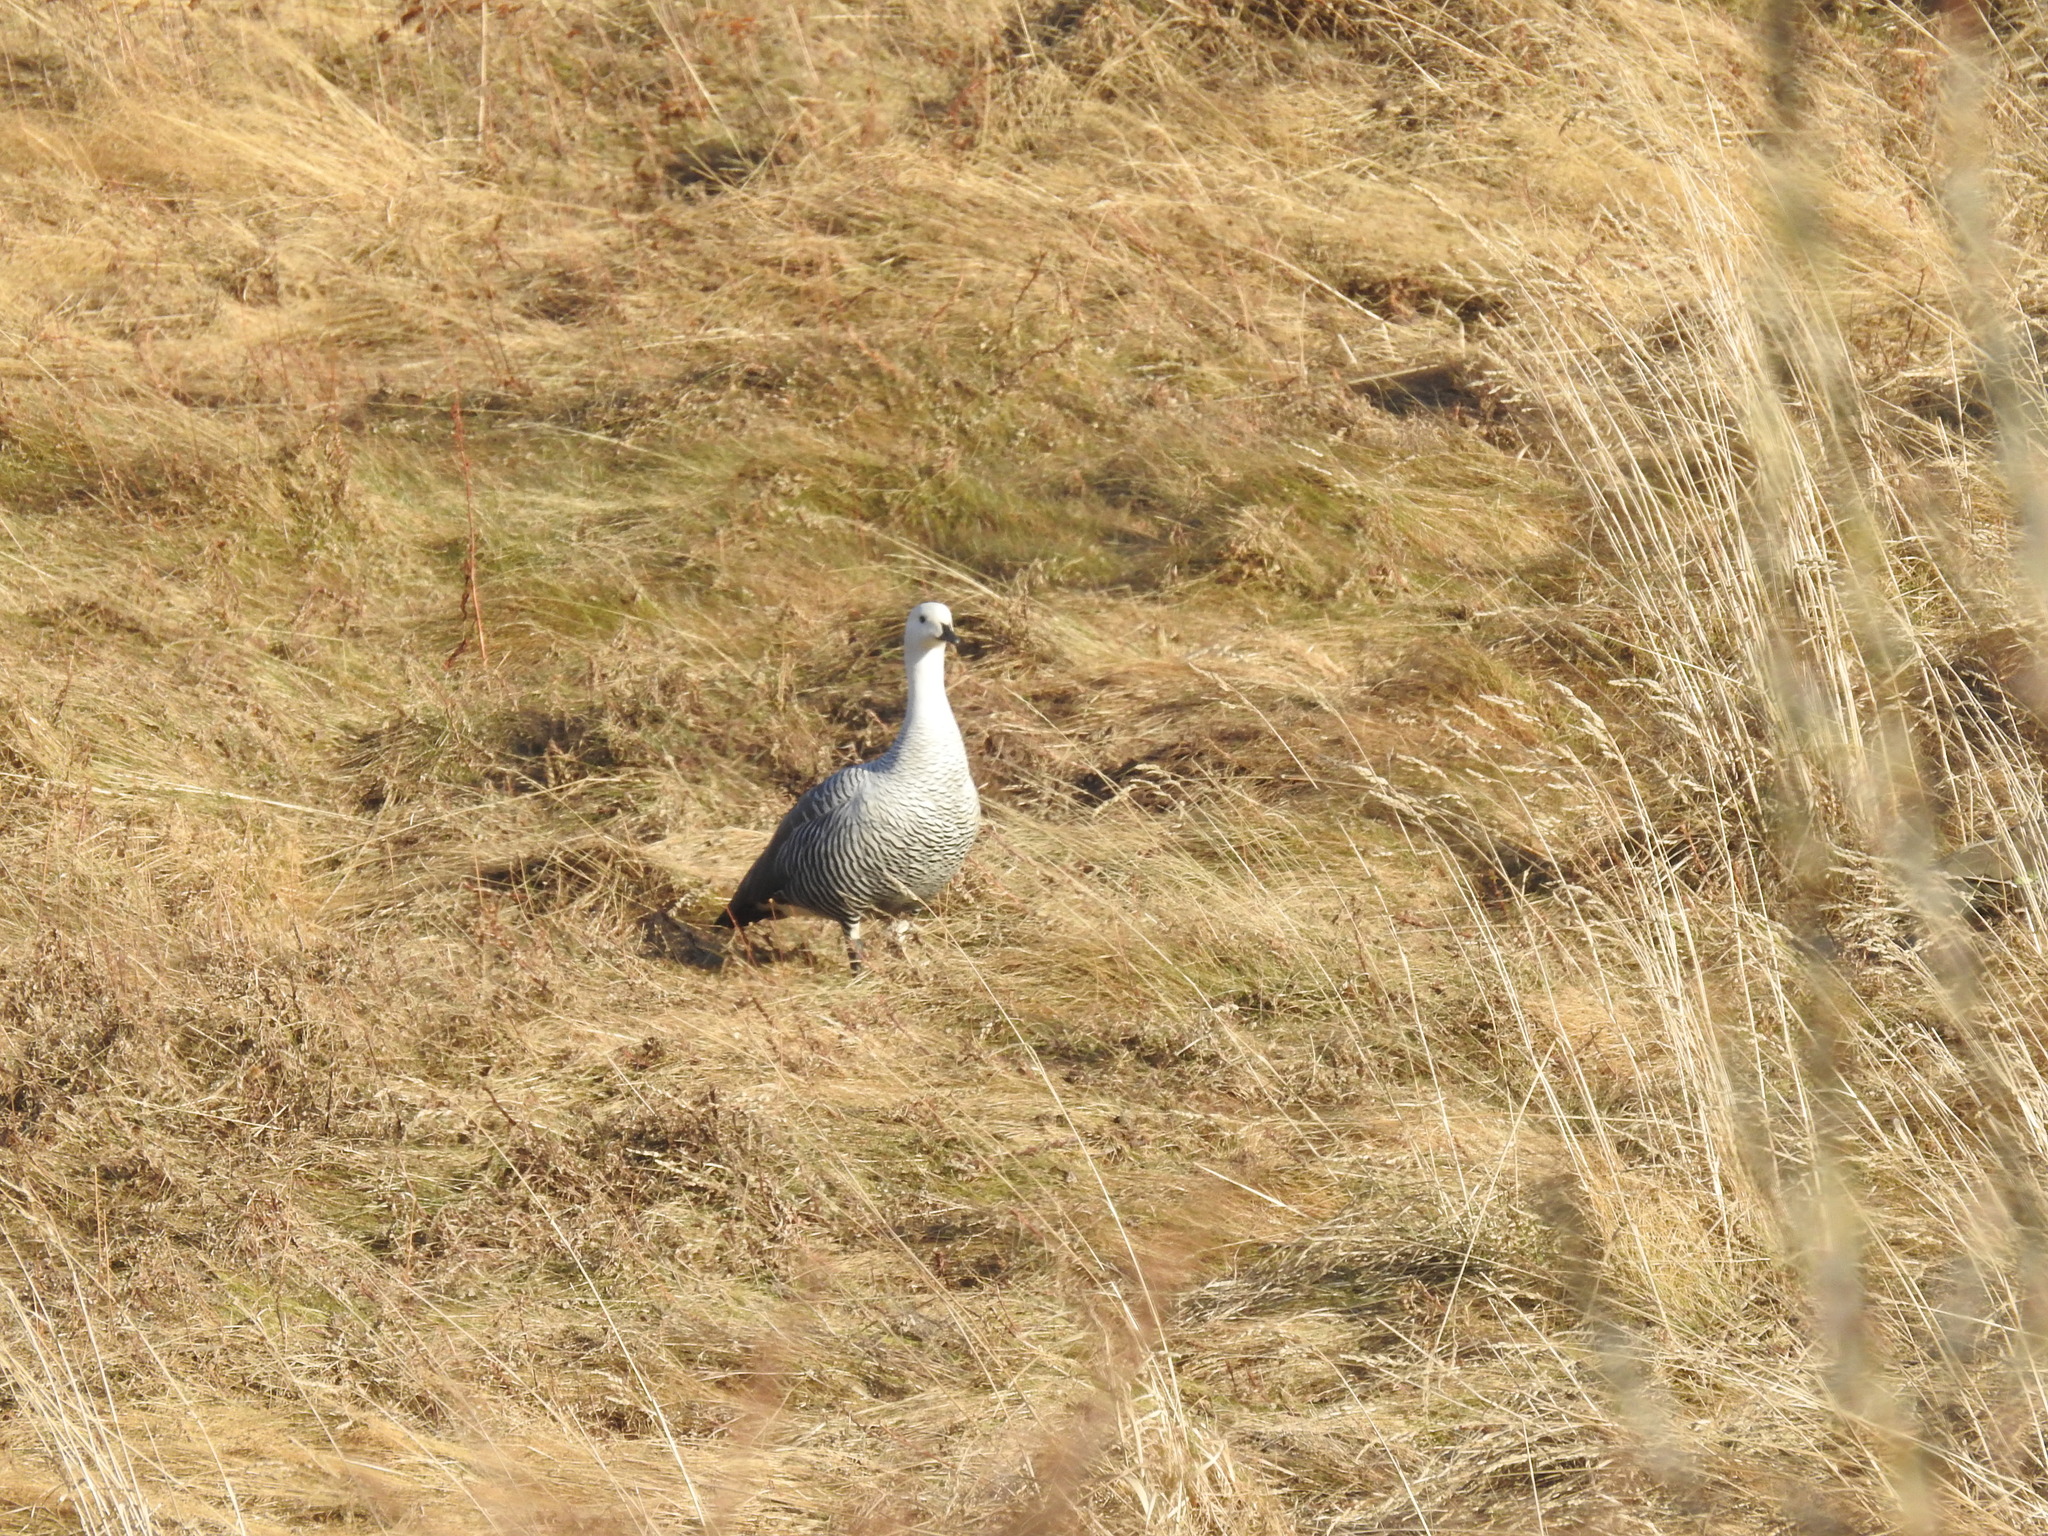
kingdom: Animalia
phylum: Chordata
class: Aves
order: Anseriformes
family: Anatidae
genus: Chloephaga
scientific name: Chloephaga picta
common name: Upland goose
